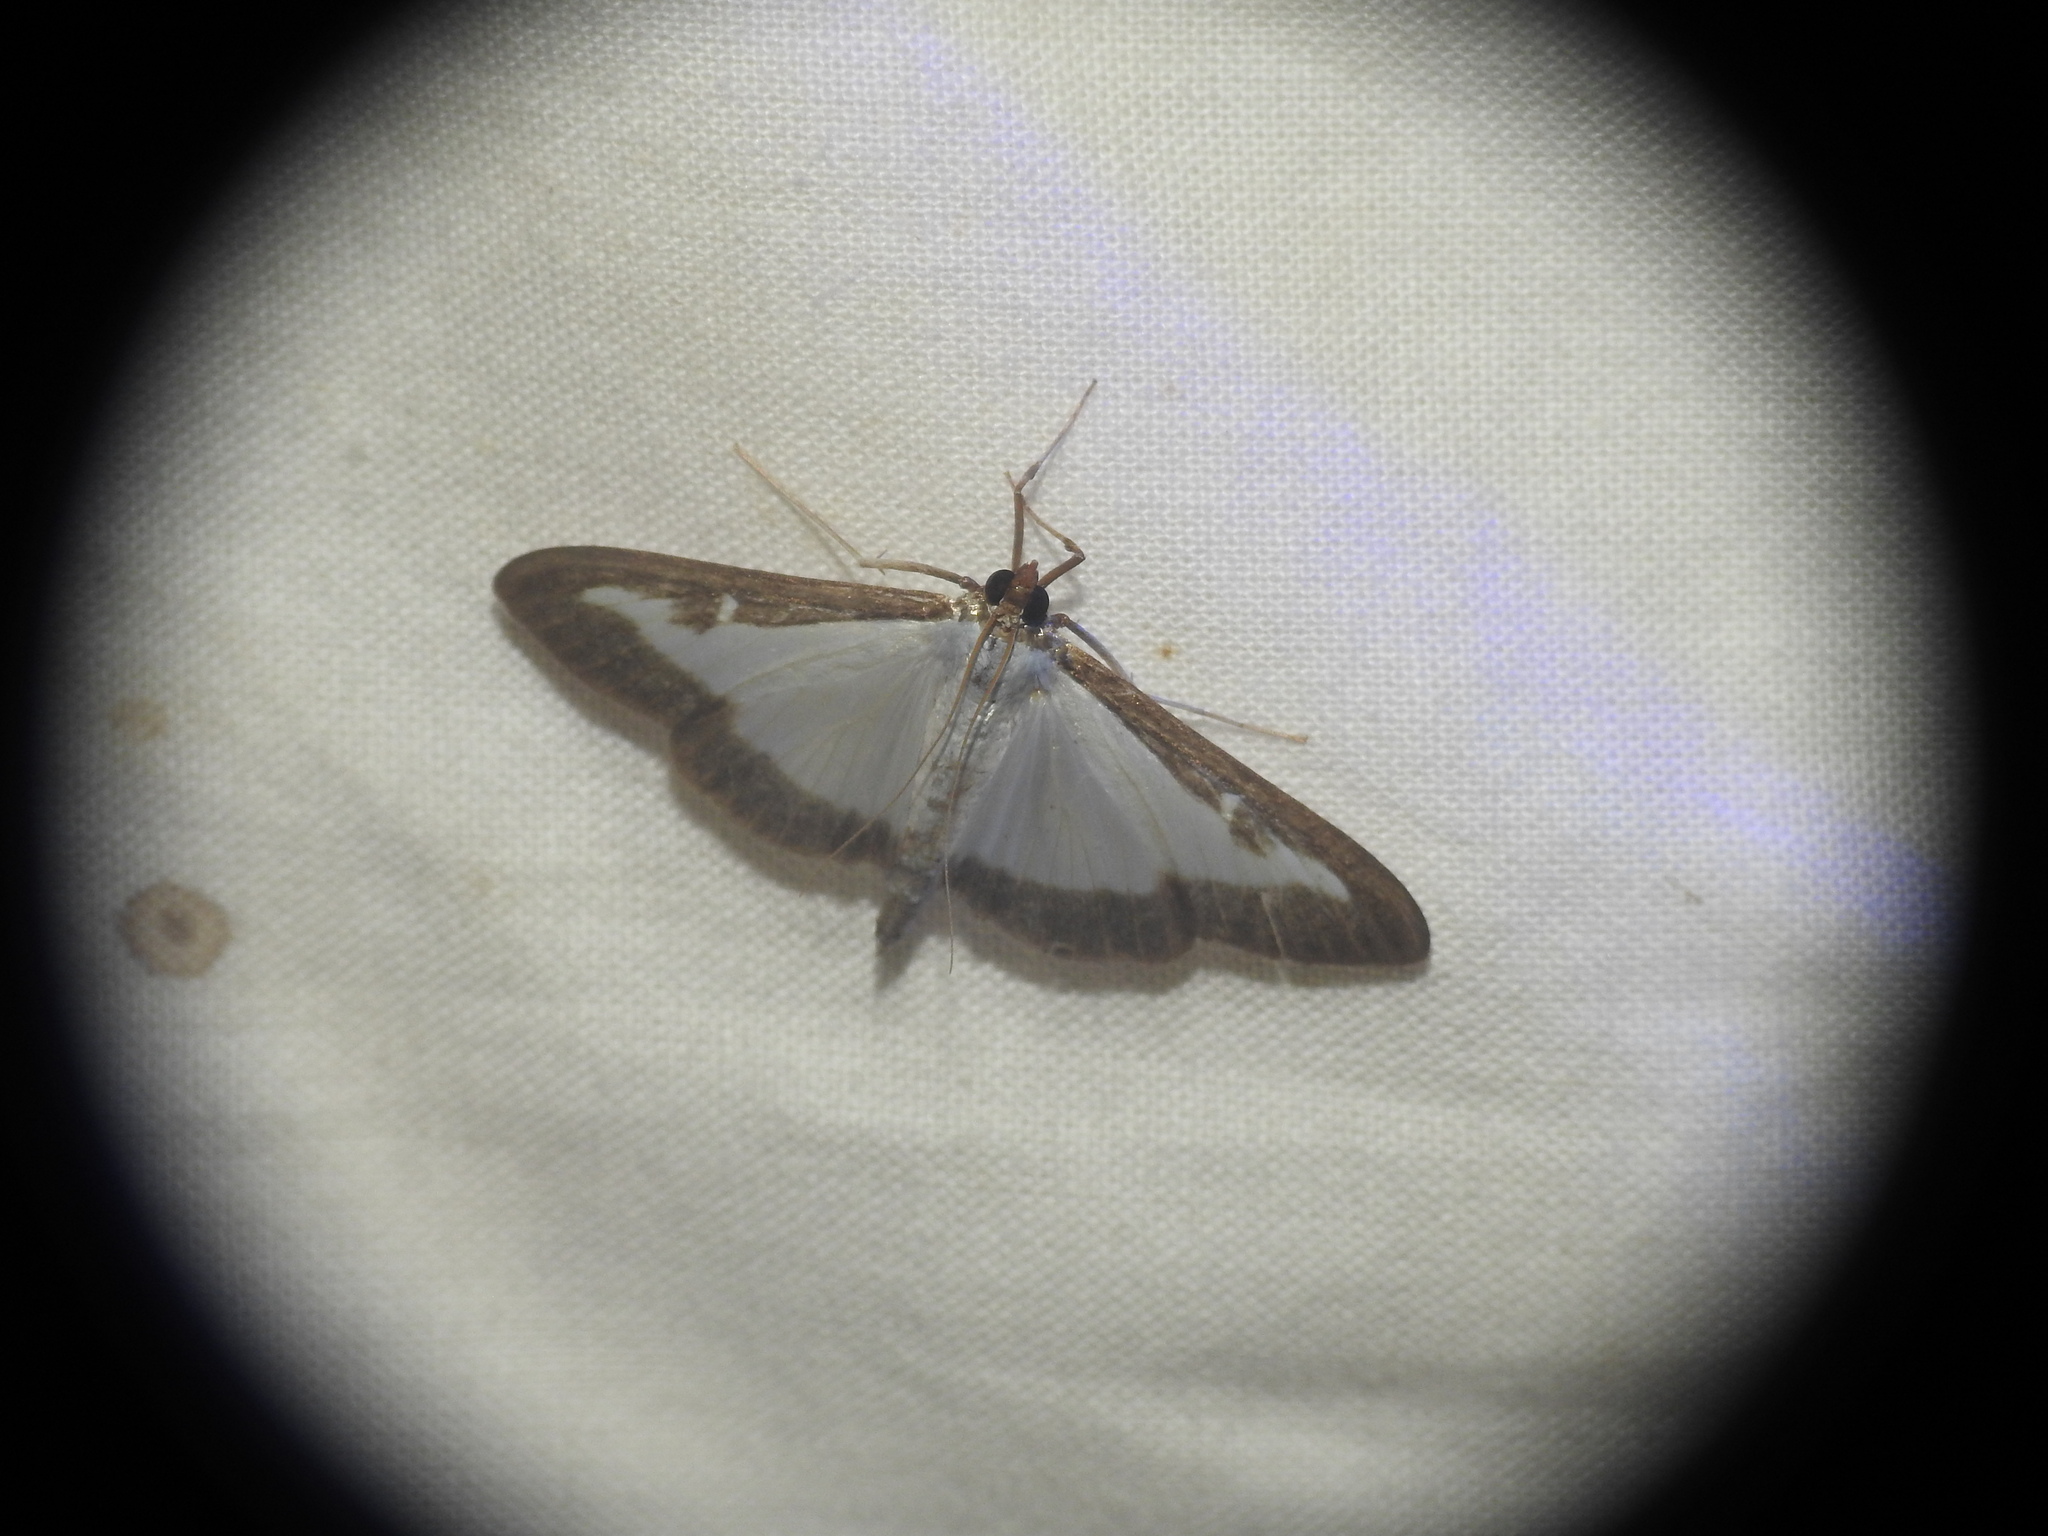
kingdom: Animalia
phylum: Arthropoda
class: Insecta
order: Lepidoptera
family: Crambidae
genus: Cydalima
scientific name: Cydalima perspectalis
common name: Box tree moth
